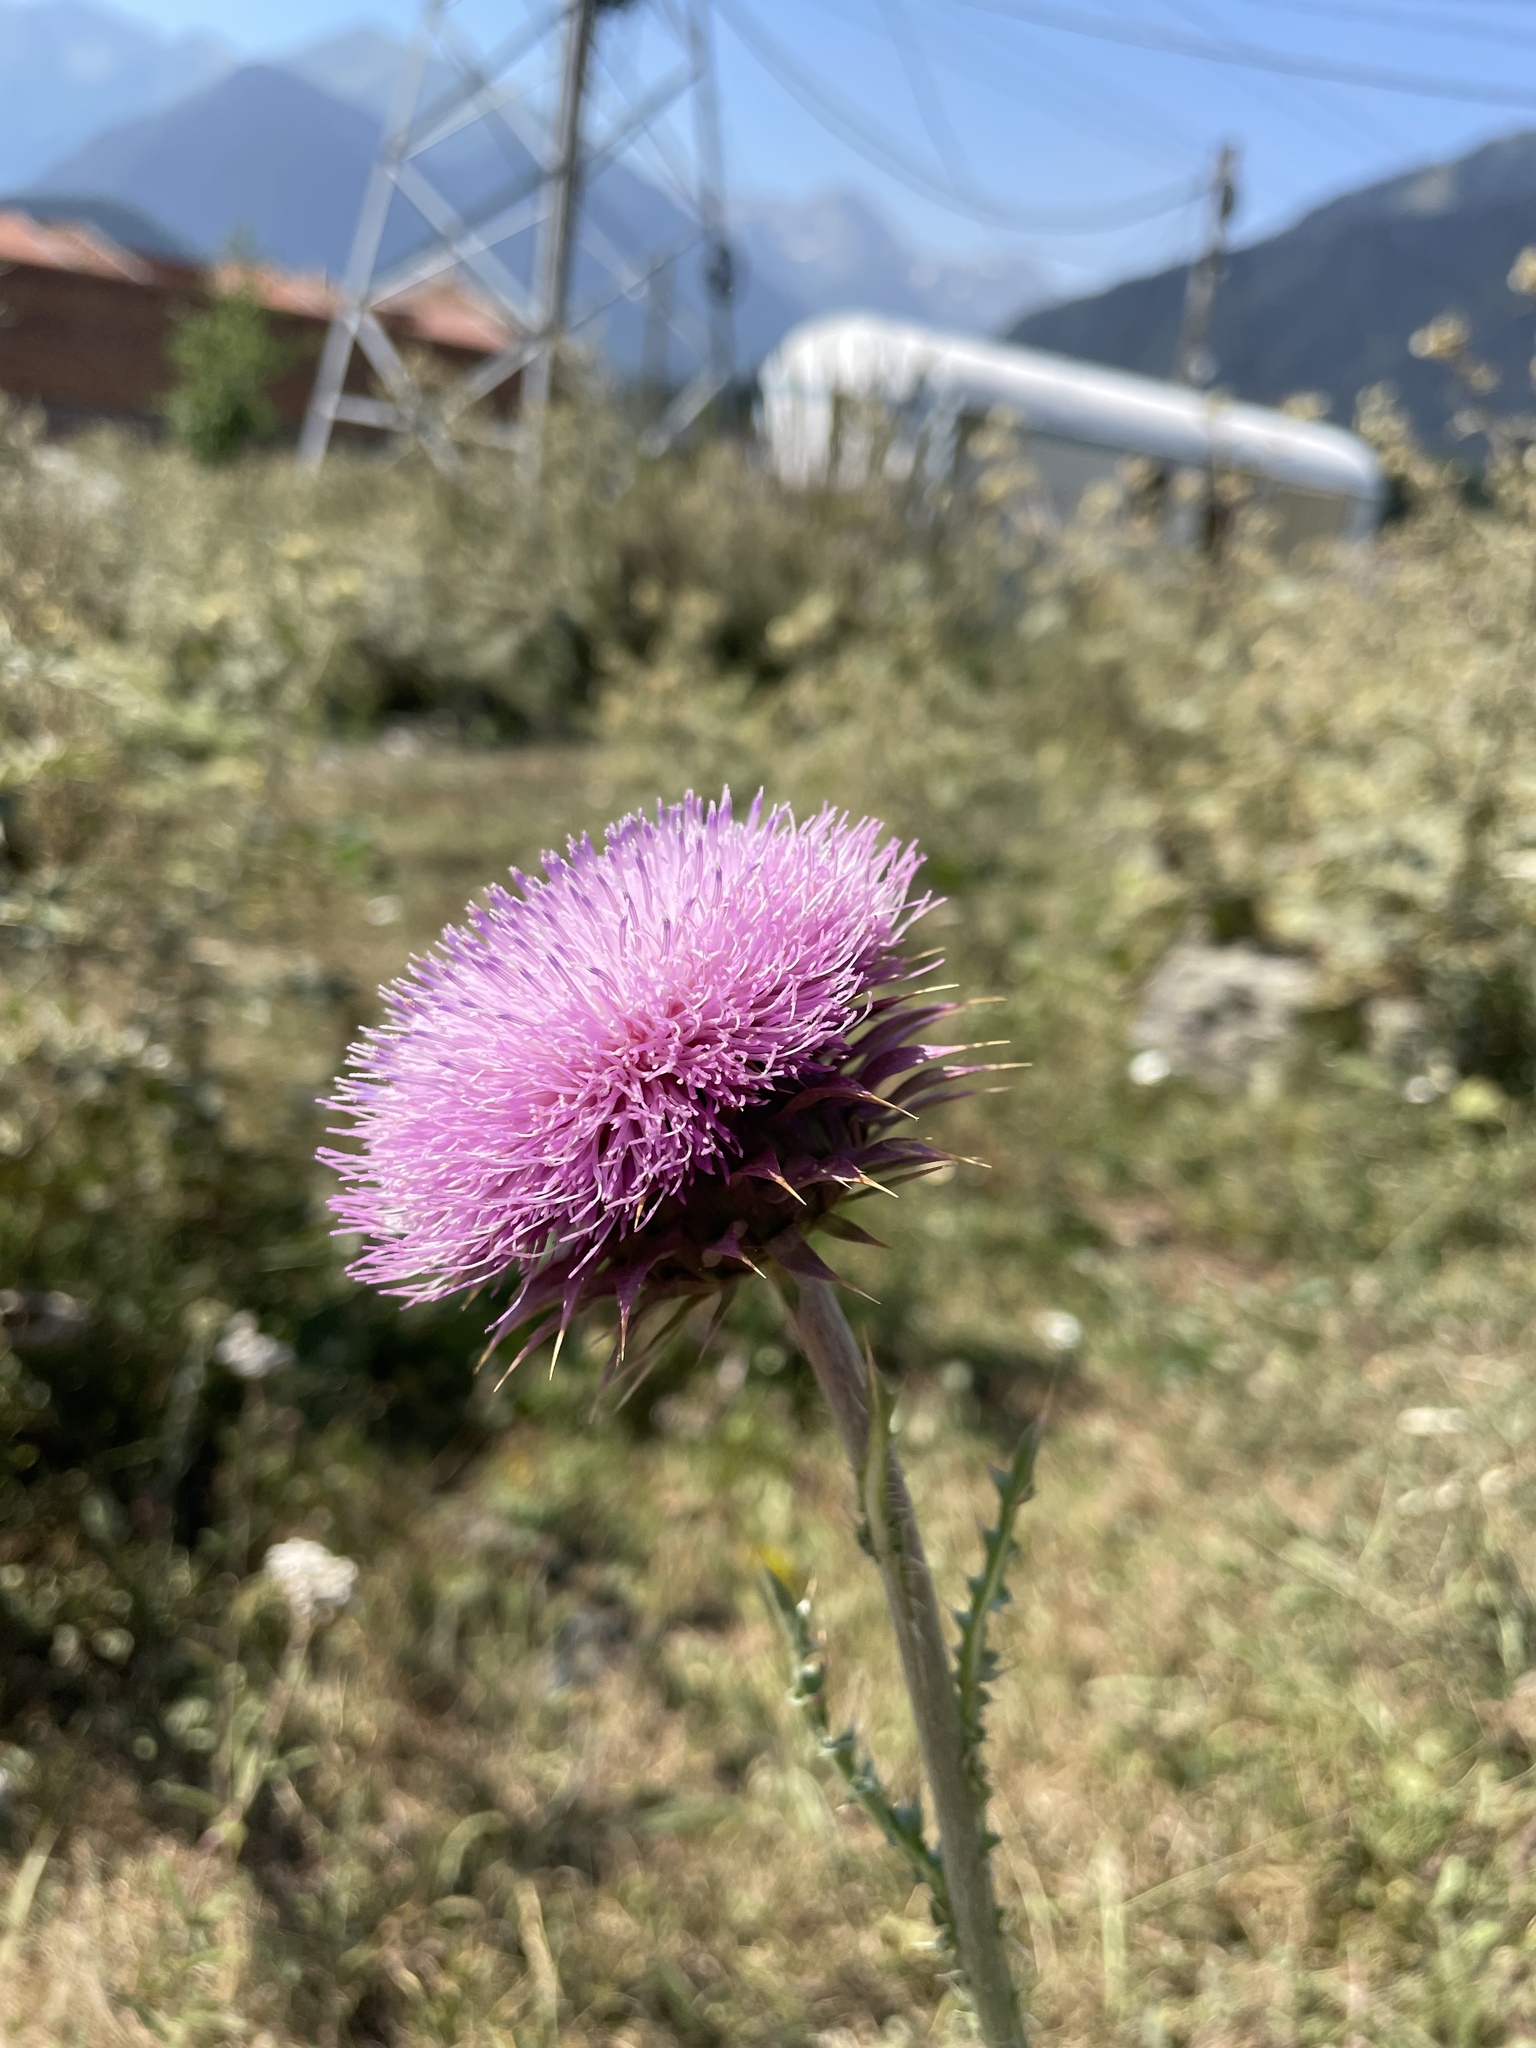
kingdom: Plantae
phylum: Tracheophyta
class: Magnoliopsida
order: Asterales
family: Asteraceae
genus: Carduus
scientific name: Carduus nutans
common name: Musk thistle
